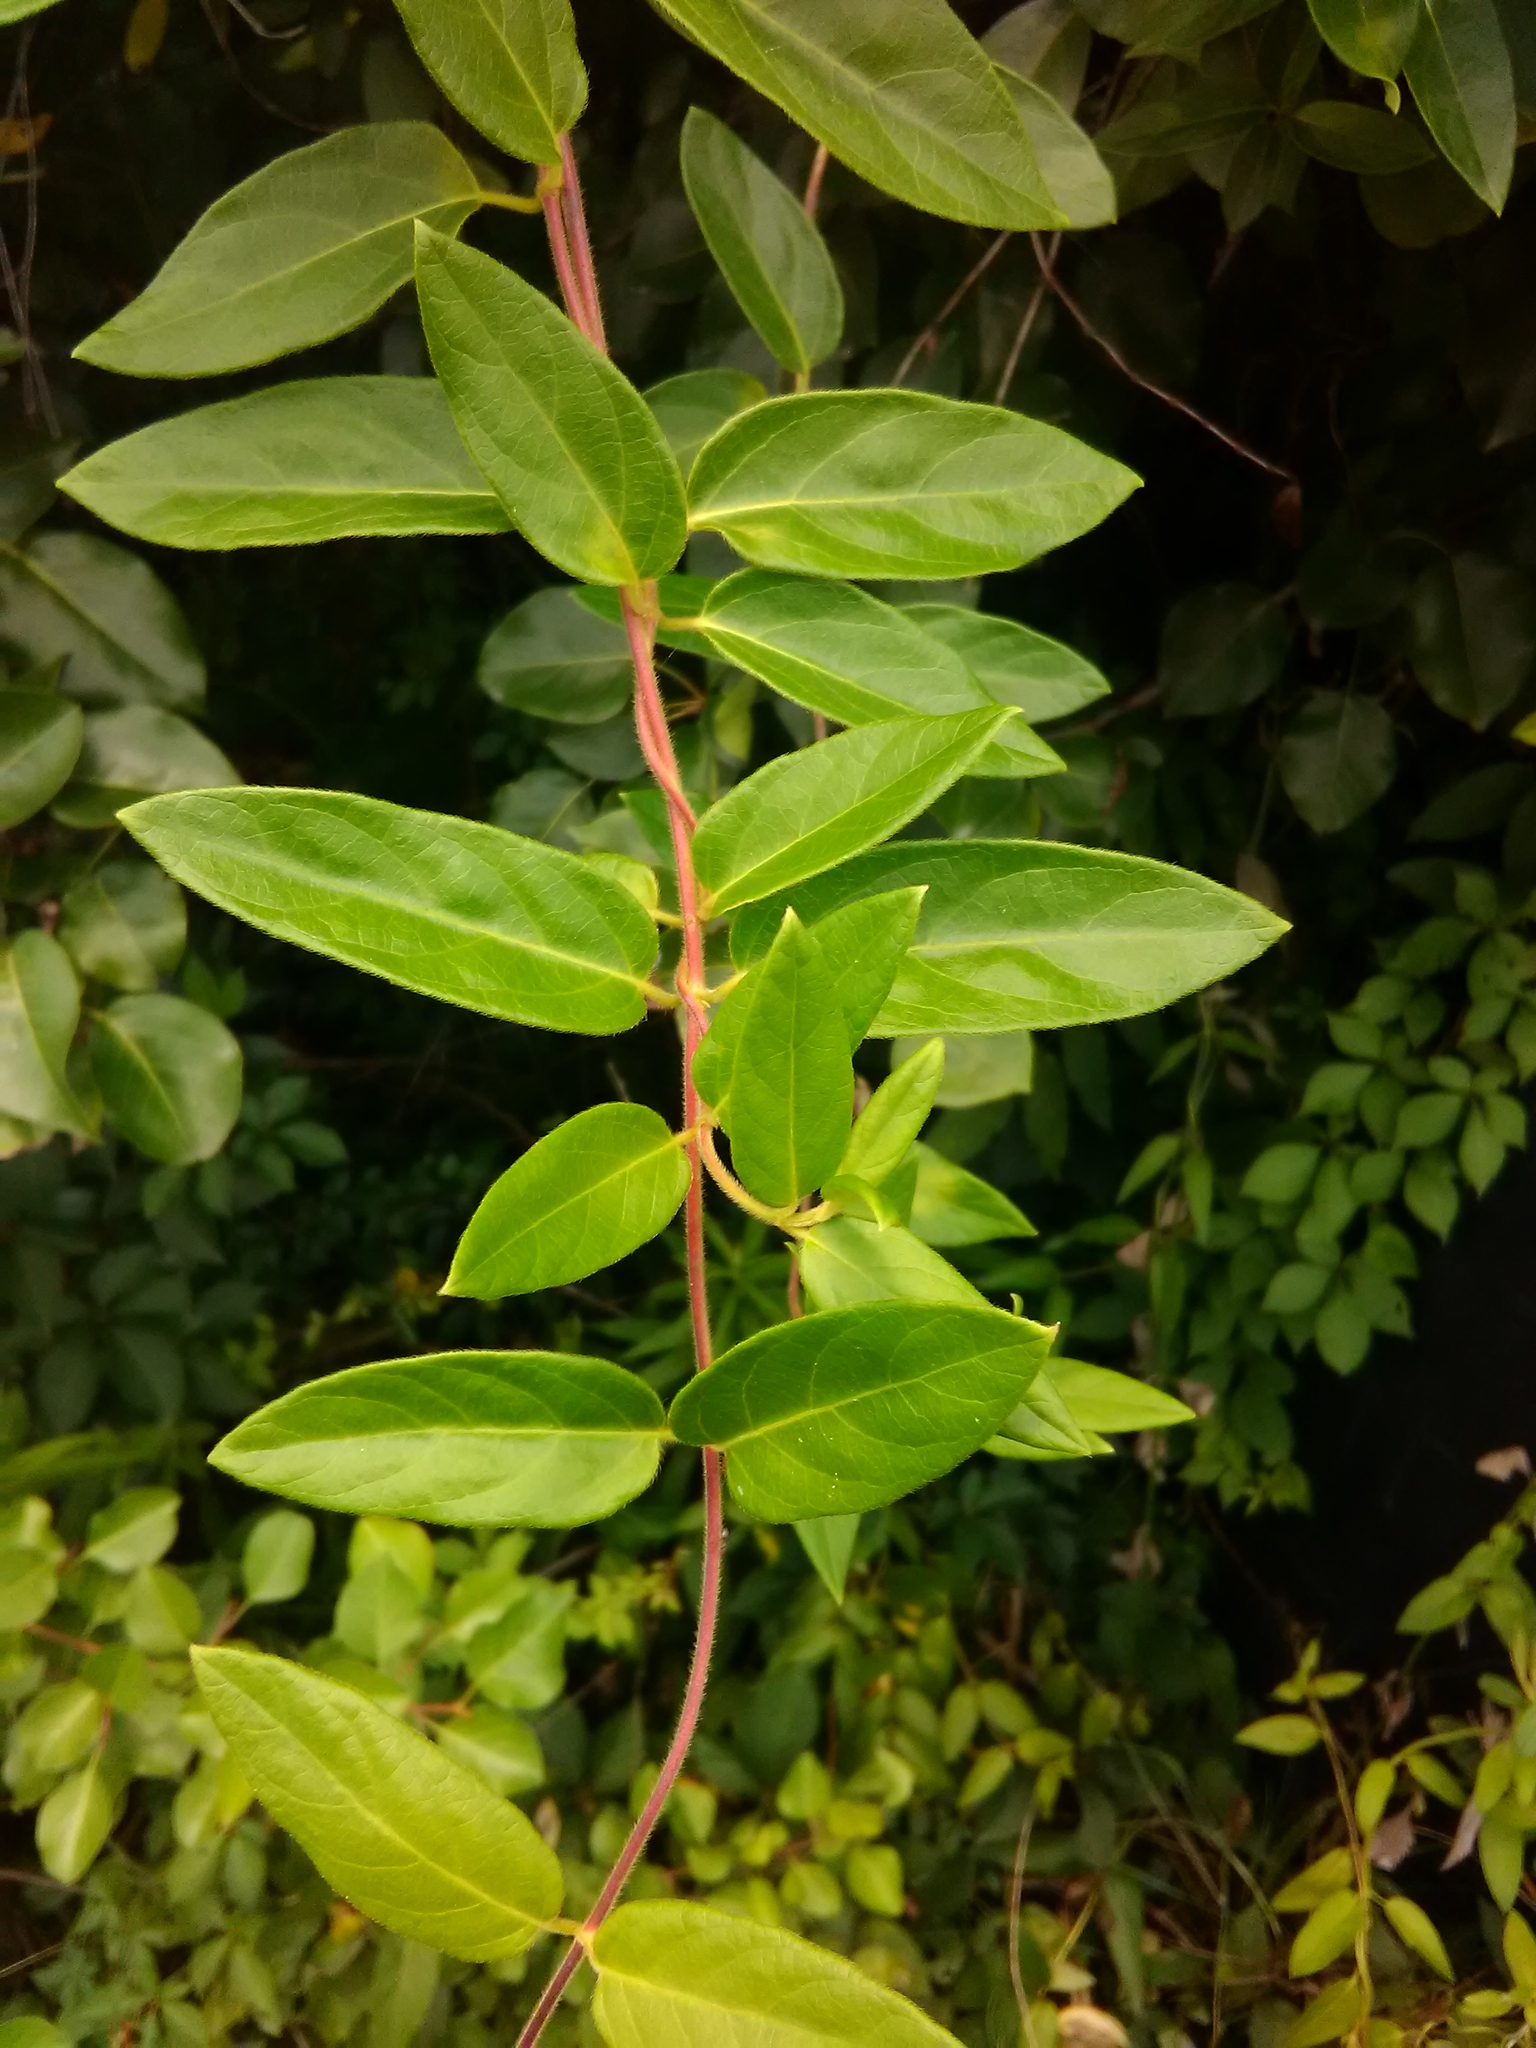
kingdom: Plantae
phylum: Tracheophyta
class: Magnoliopsida
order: Dipsacales
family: Caprifoliaceae
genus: Lonicera
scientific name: Lonicera japonica
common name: Japanese honeysuckle
